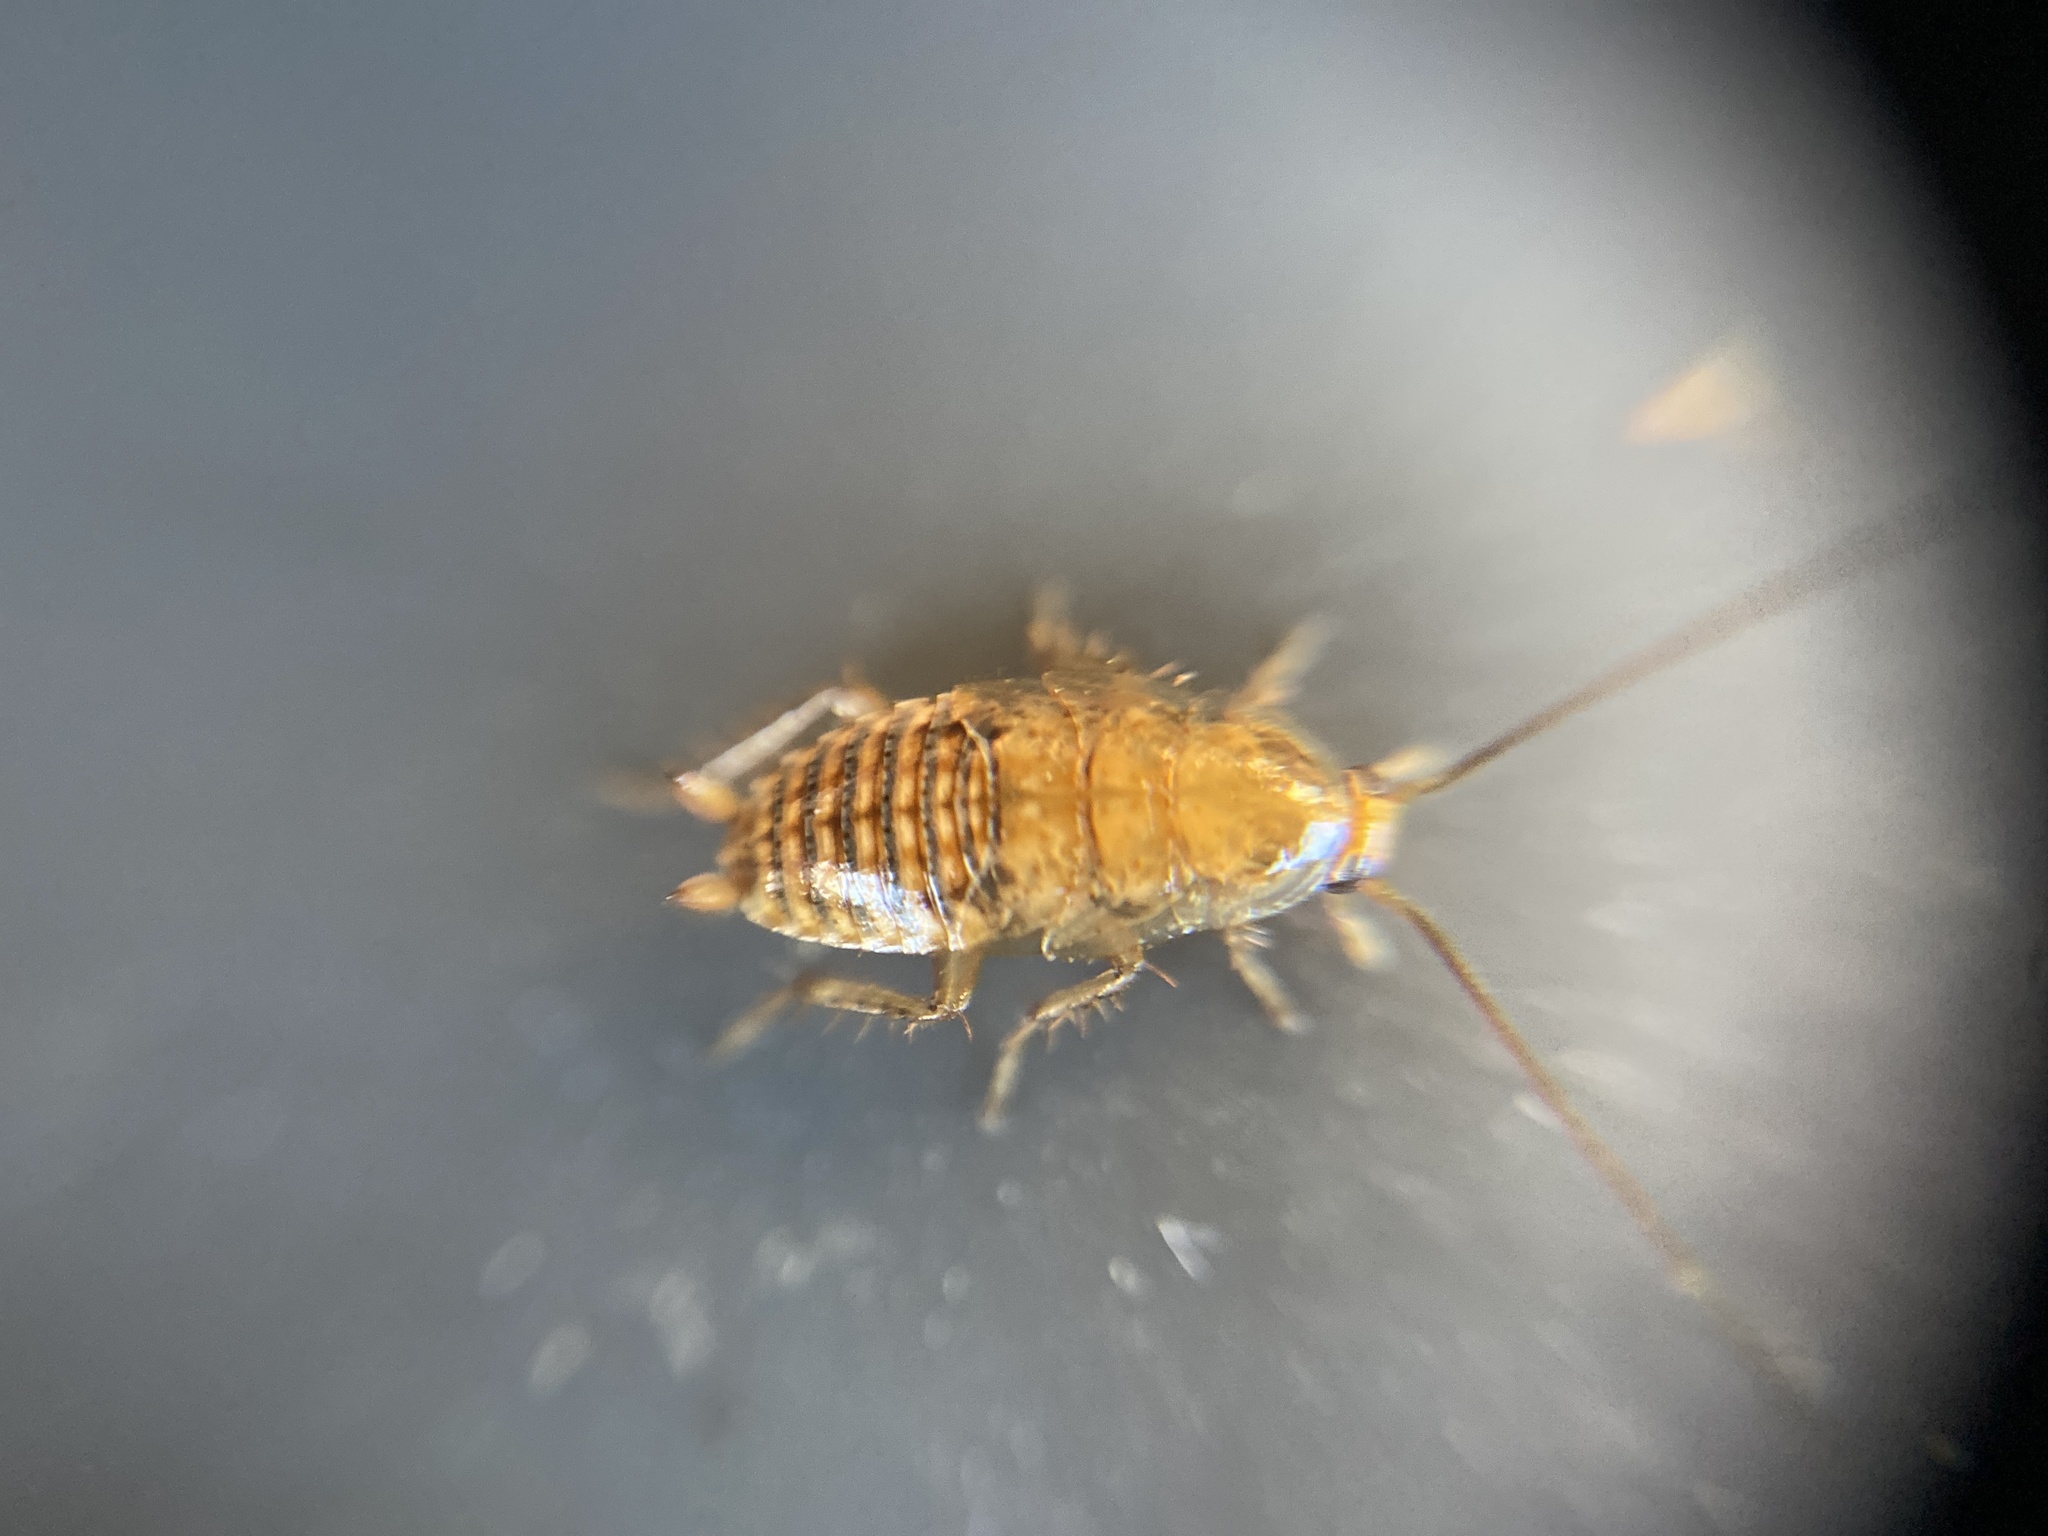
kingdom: Animalia
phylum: Arthropoda
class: Insecta
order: Blattodea
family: Ectobiidae
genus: Ectobius
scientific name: Ectobius lapponicus
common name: Dusky cockroach
